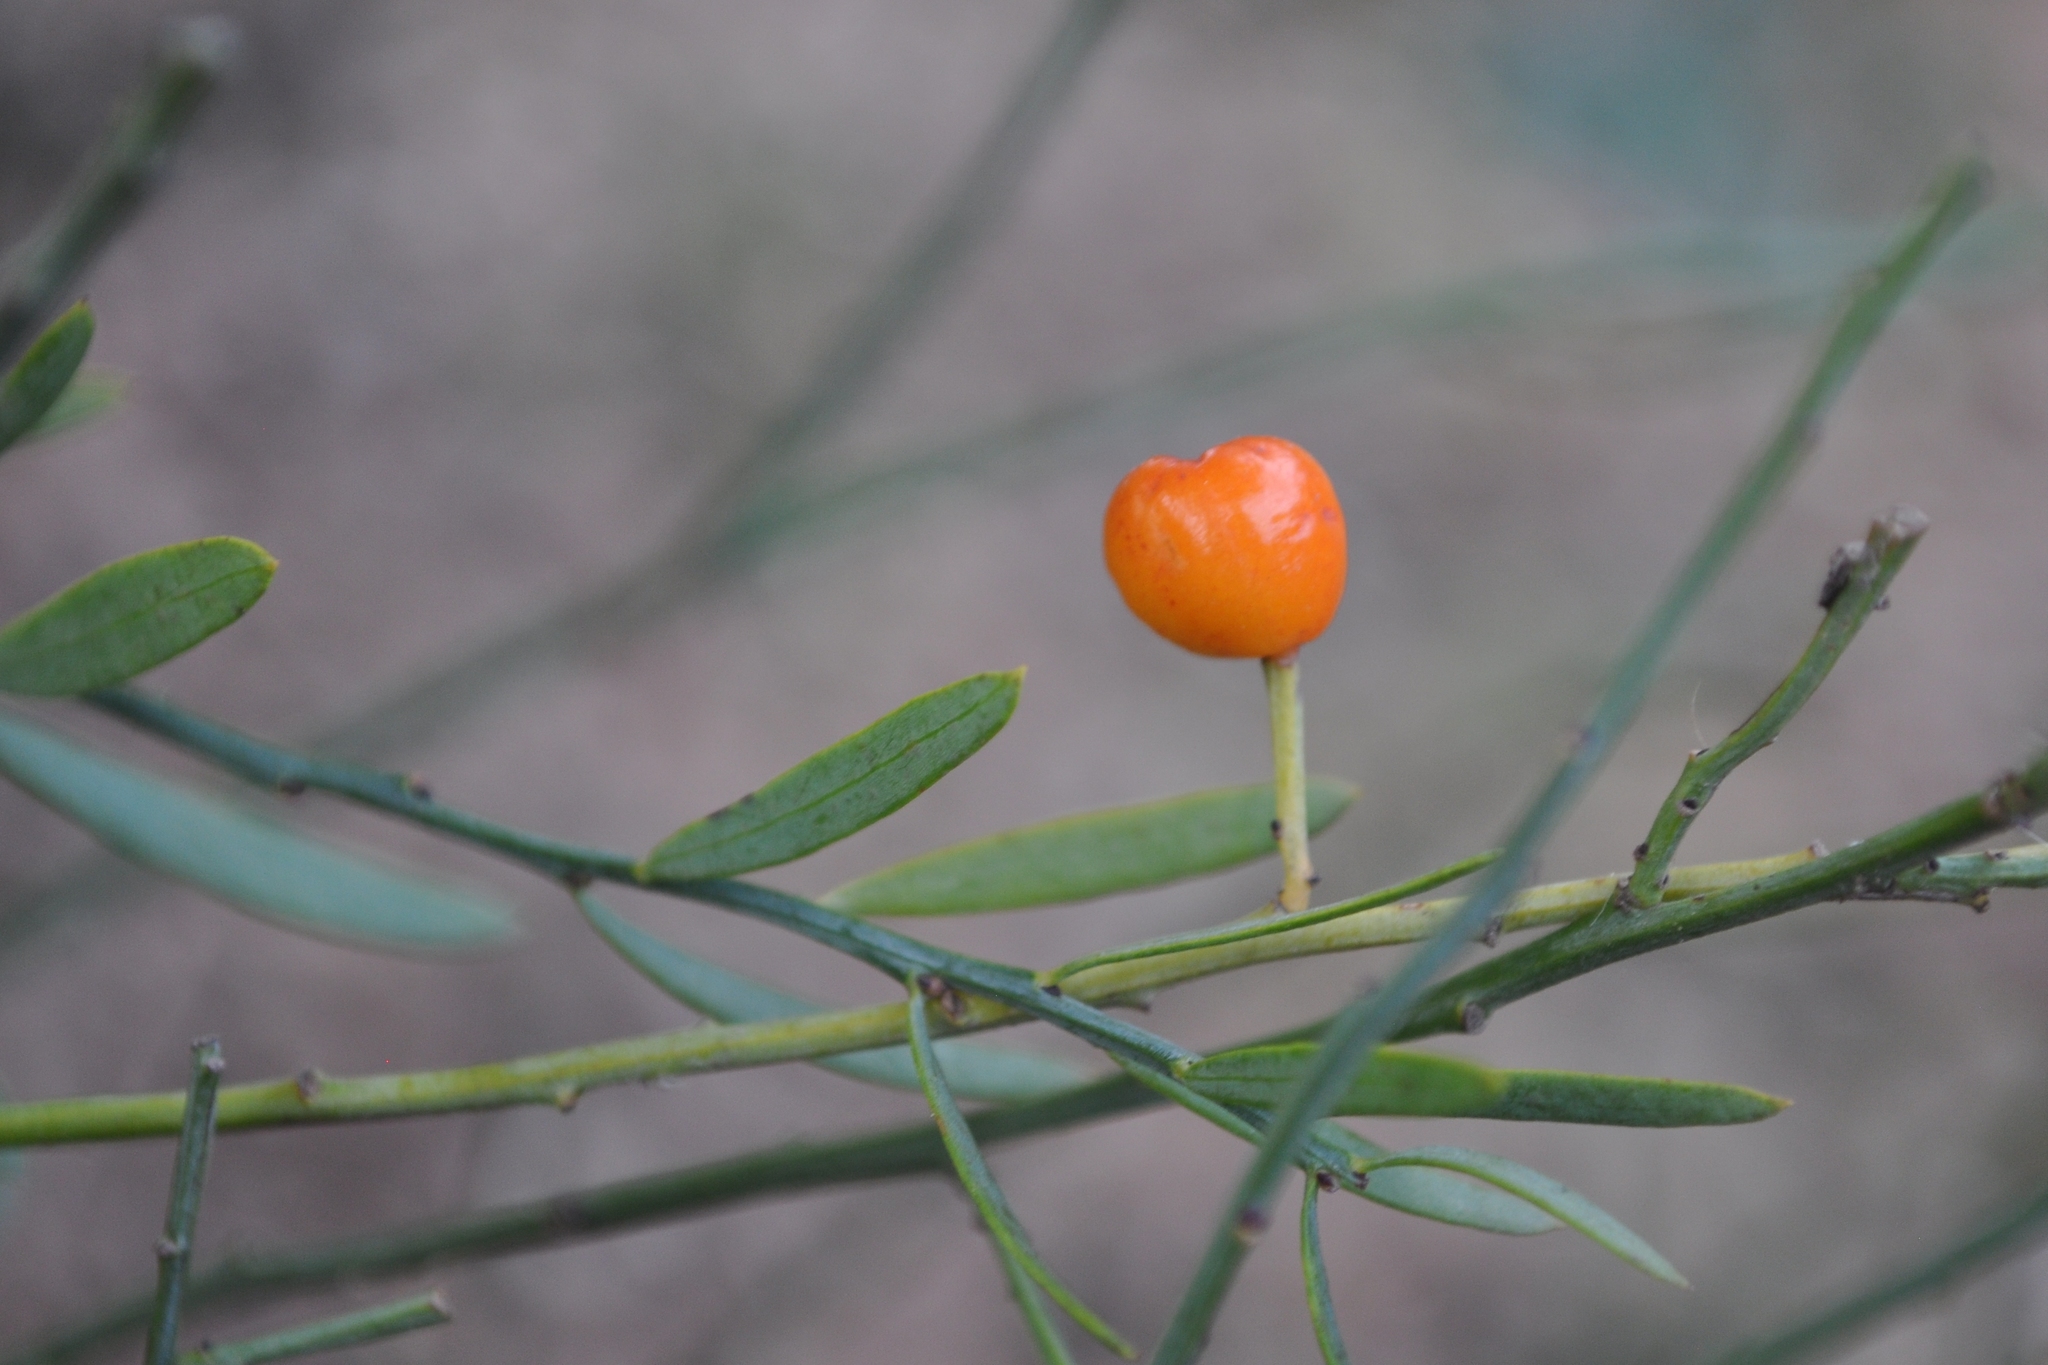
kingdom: Plantae
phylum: Tracheophyta
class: Magnoliopsida
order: Santalales
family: Santalaceae
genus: Osyris
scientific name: Osyris alba
